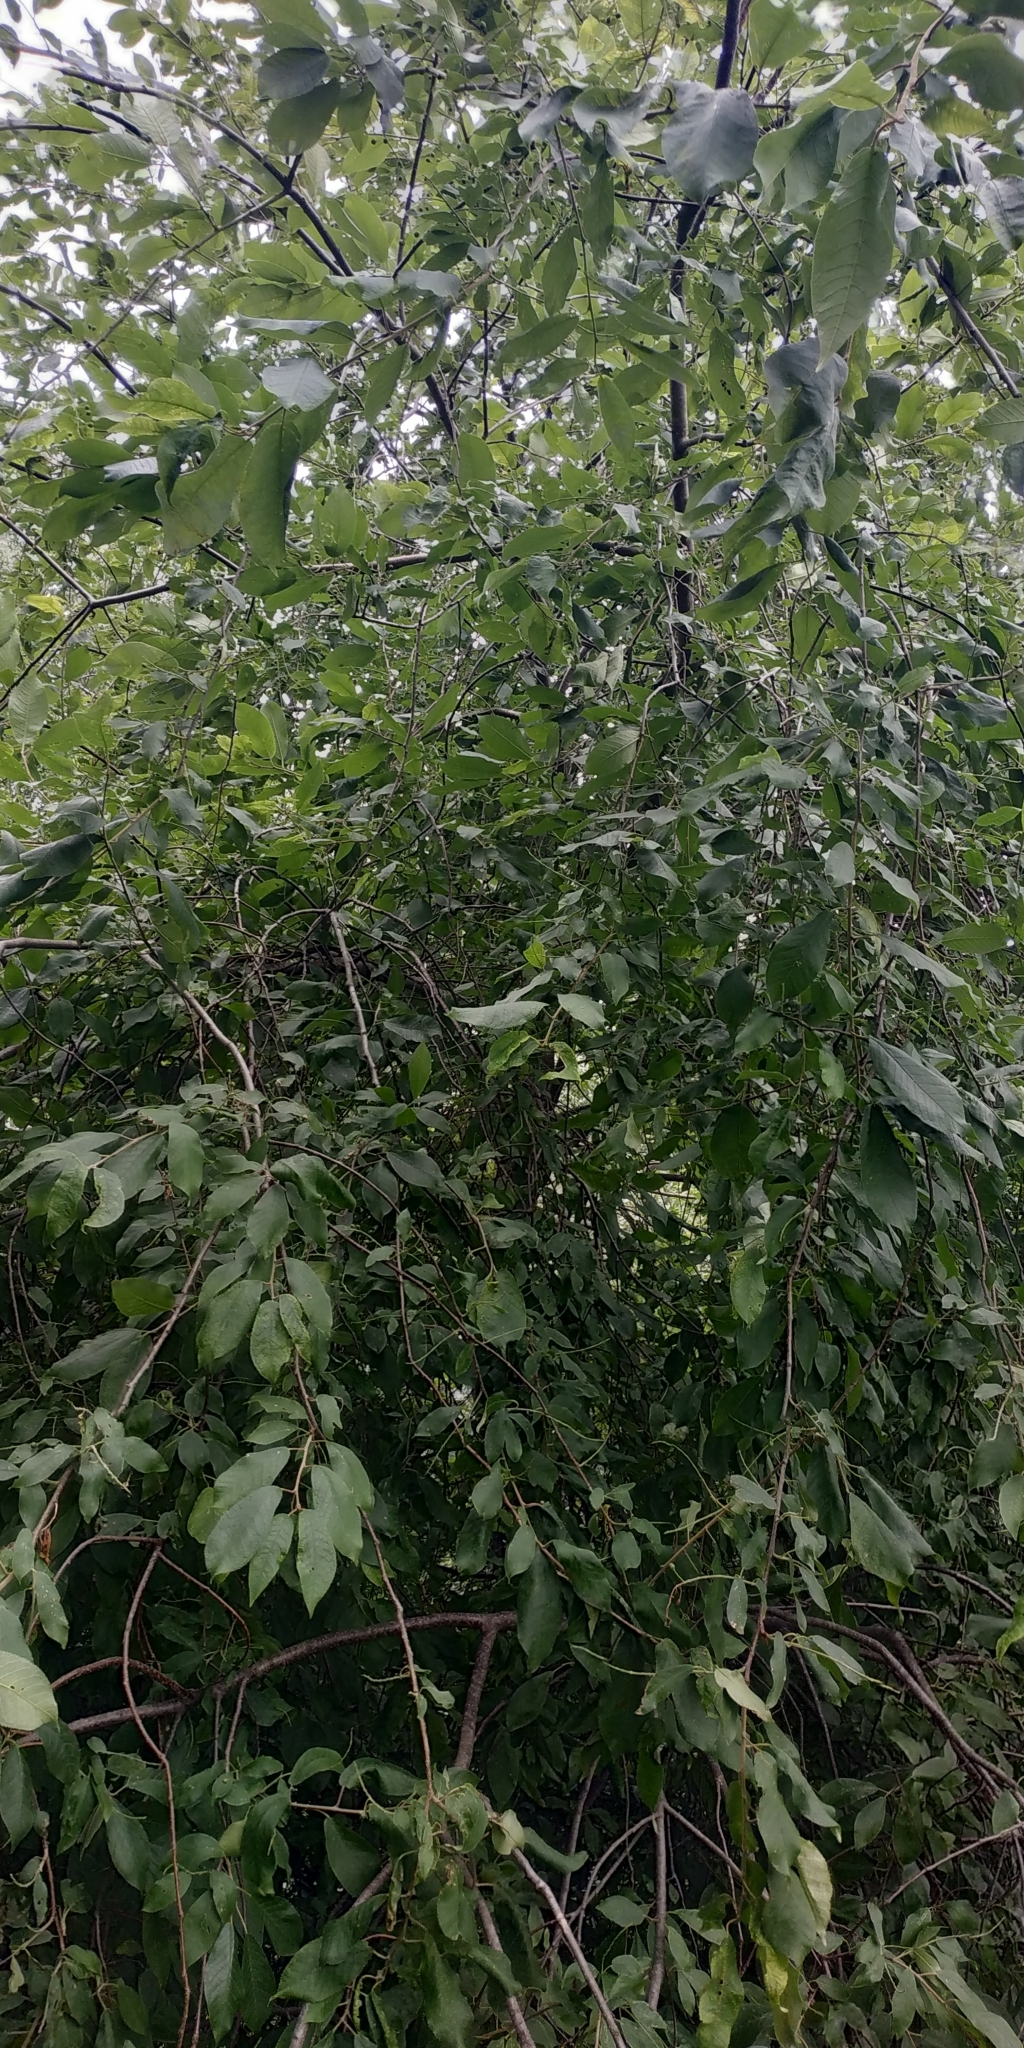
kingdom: Plantae
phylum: Tracheophyta
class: Magnoliopsida
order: Rosales
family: Rosaceae
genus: Prunus
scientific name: Prunus padus
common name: Bird cherry
